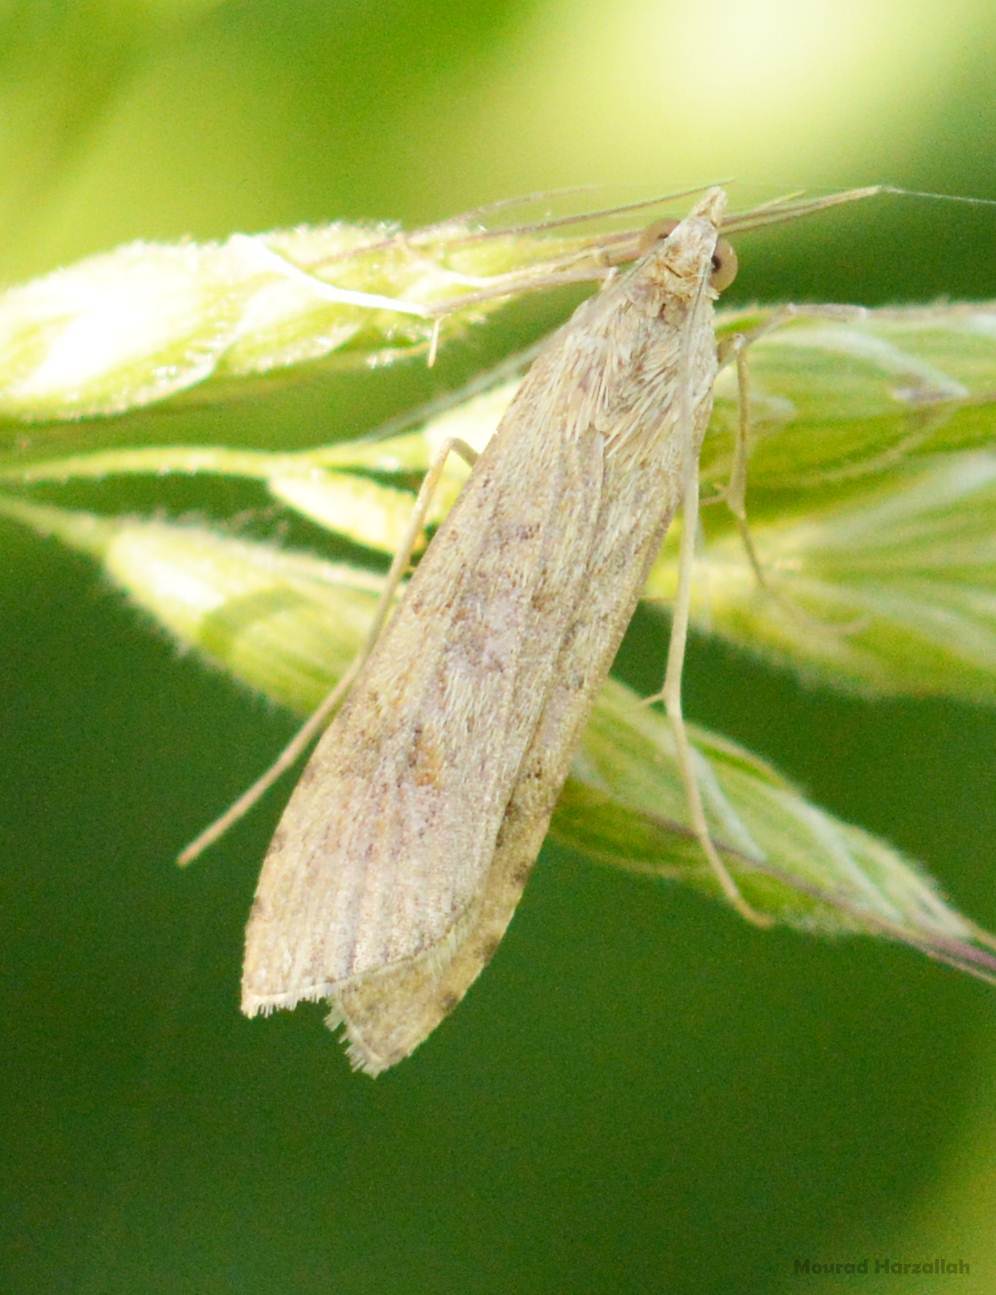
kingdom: Animalia
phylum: Arthropoda
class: Insecta
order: Lepidoptera
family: Crambidae
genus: Nomophila
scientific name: Nomophila noctuella
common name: Rush veneer
